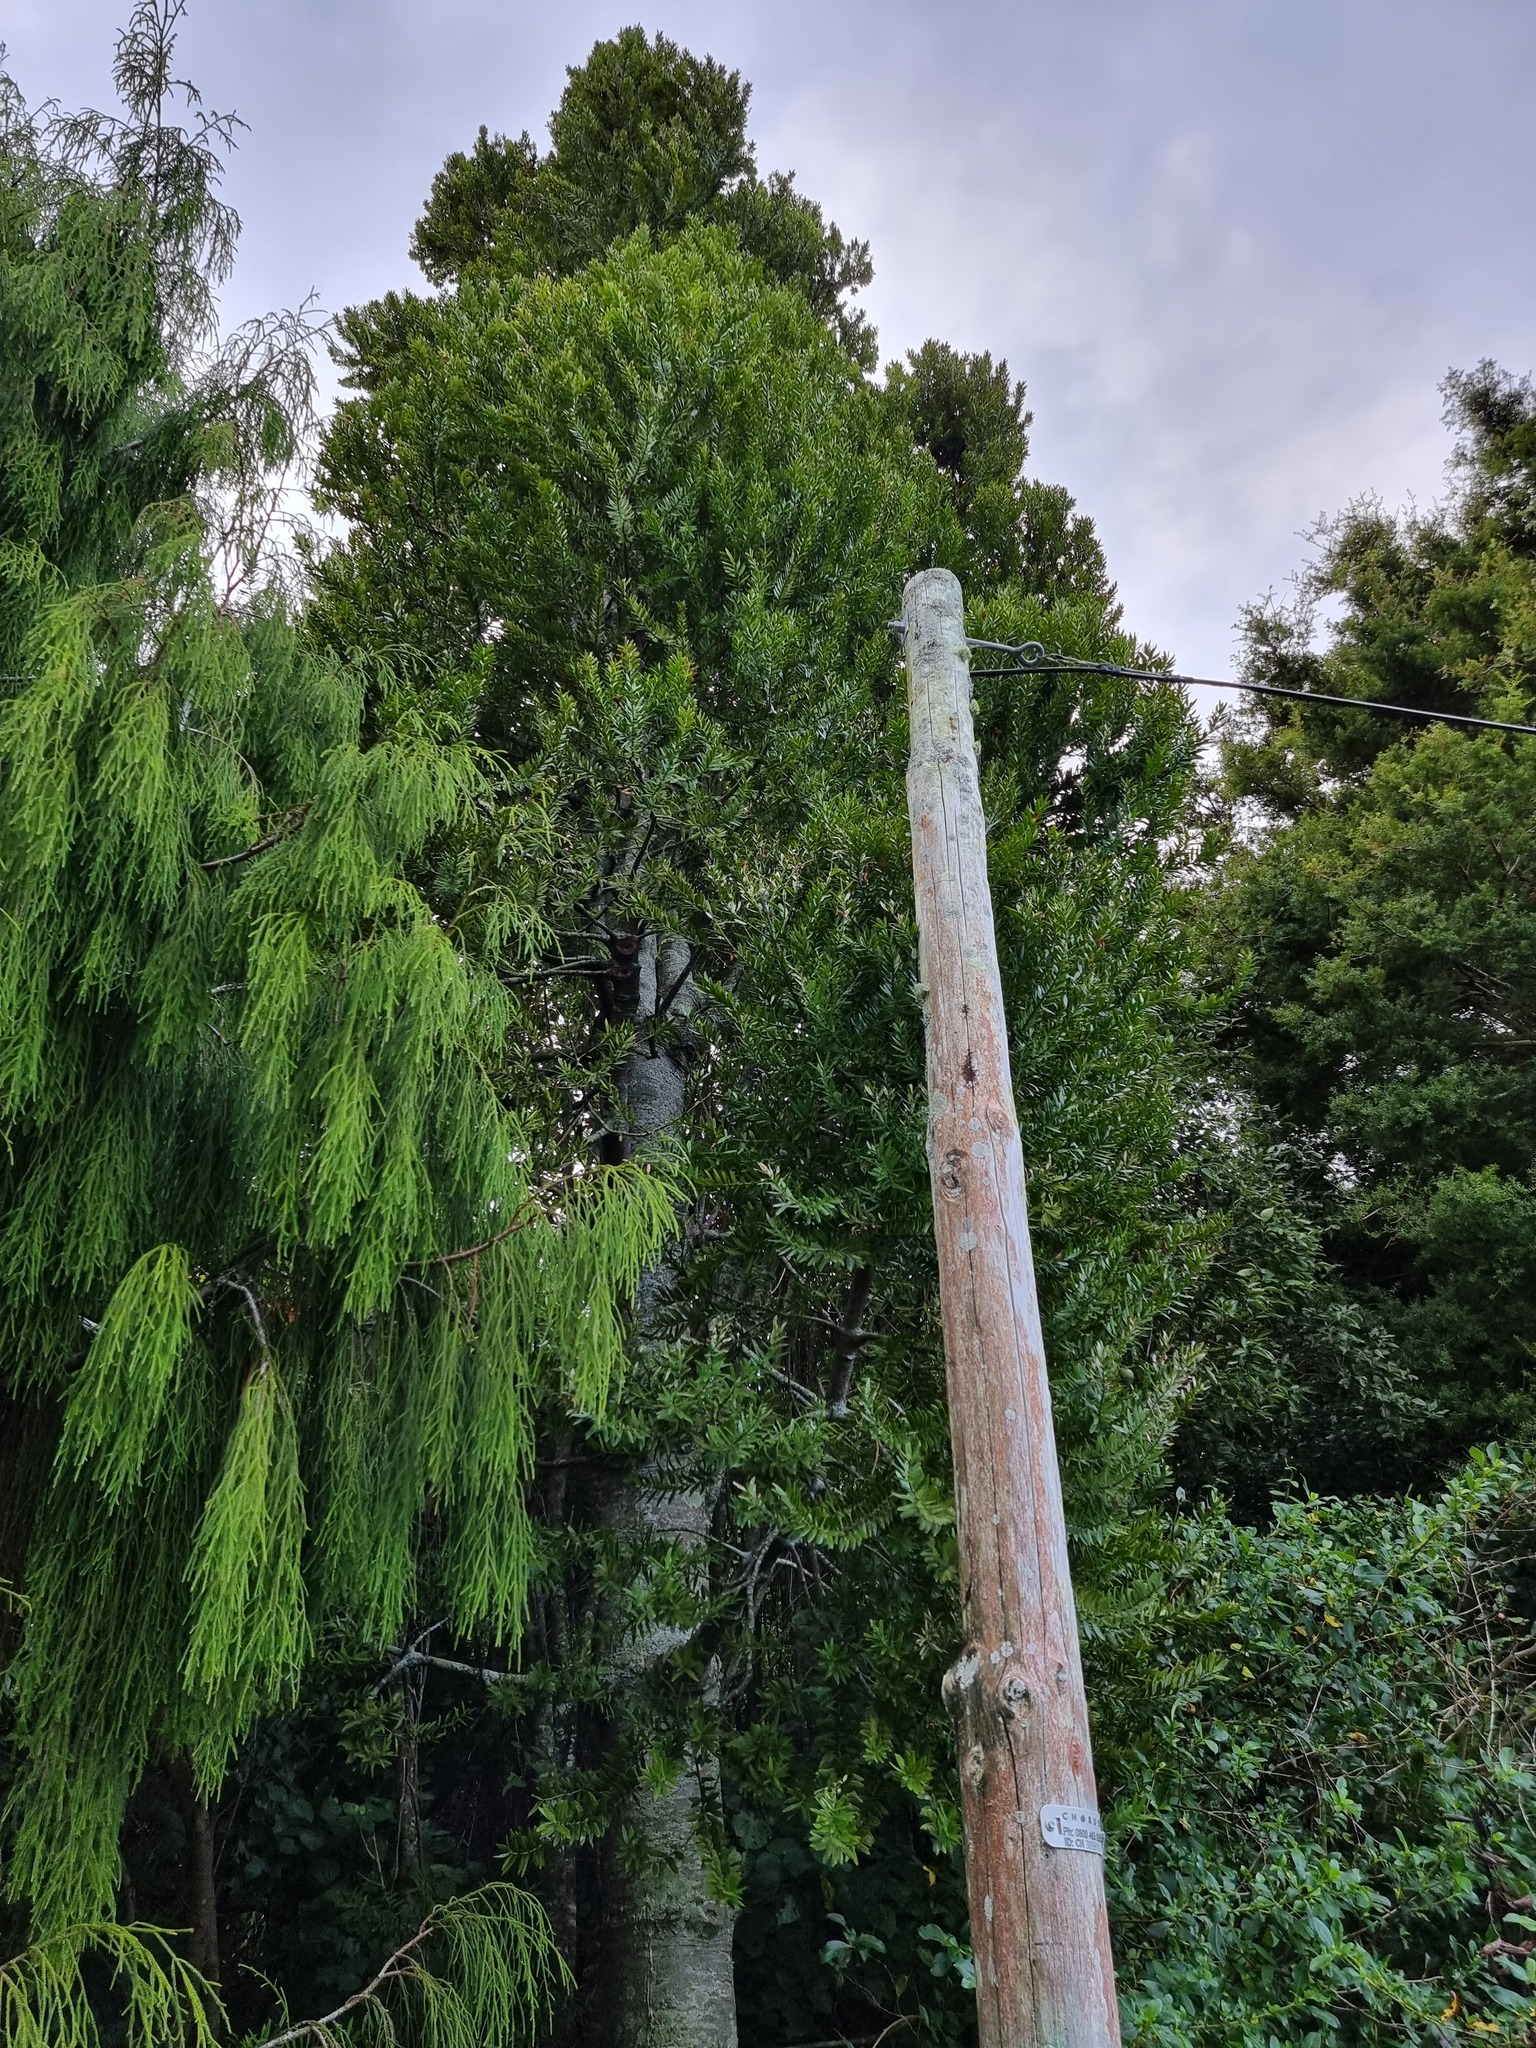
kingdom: Plantae
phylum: Tracheophyta
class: Pinopsida
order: Pinales
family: Araucariaceae
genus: Agathis
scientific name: Agathis australis
